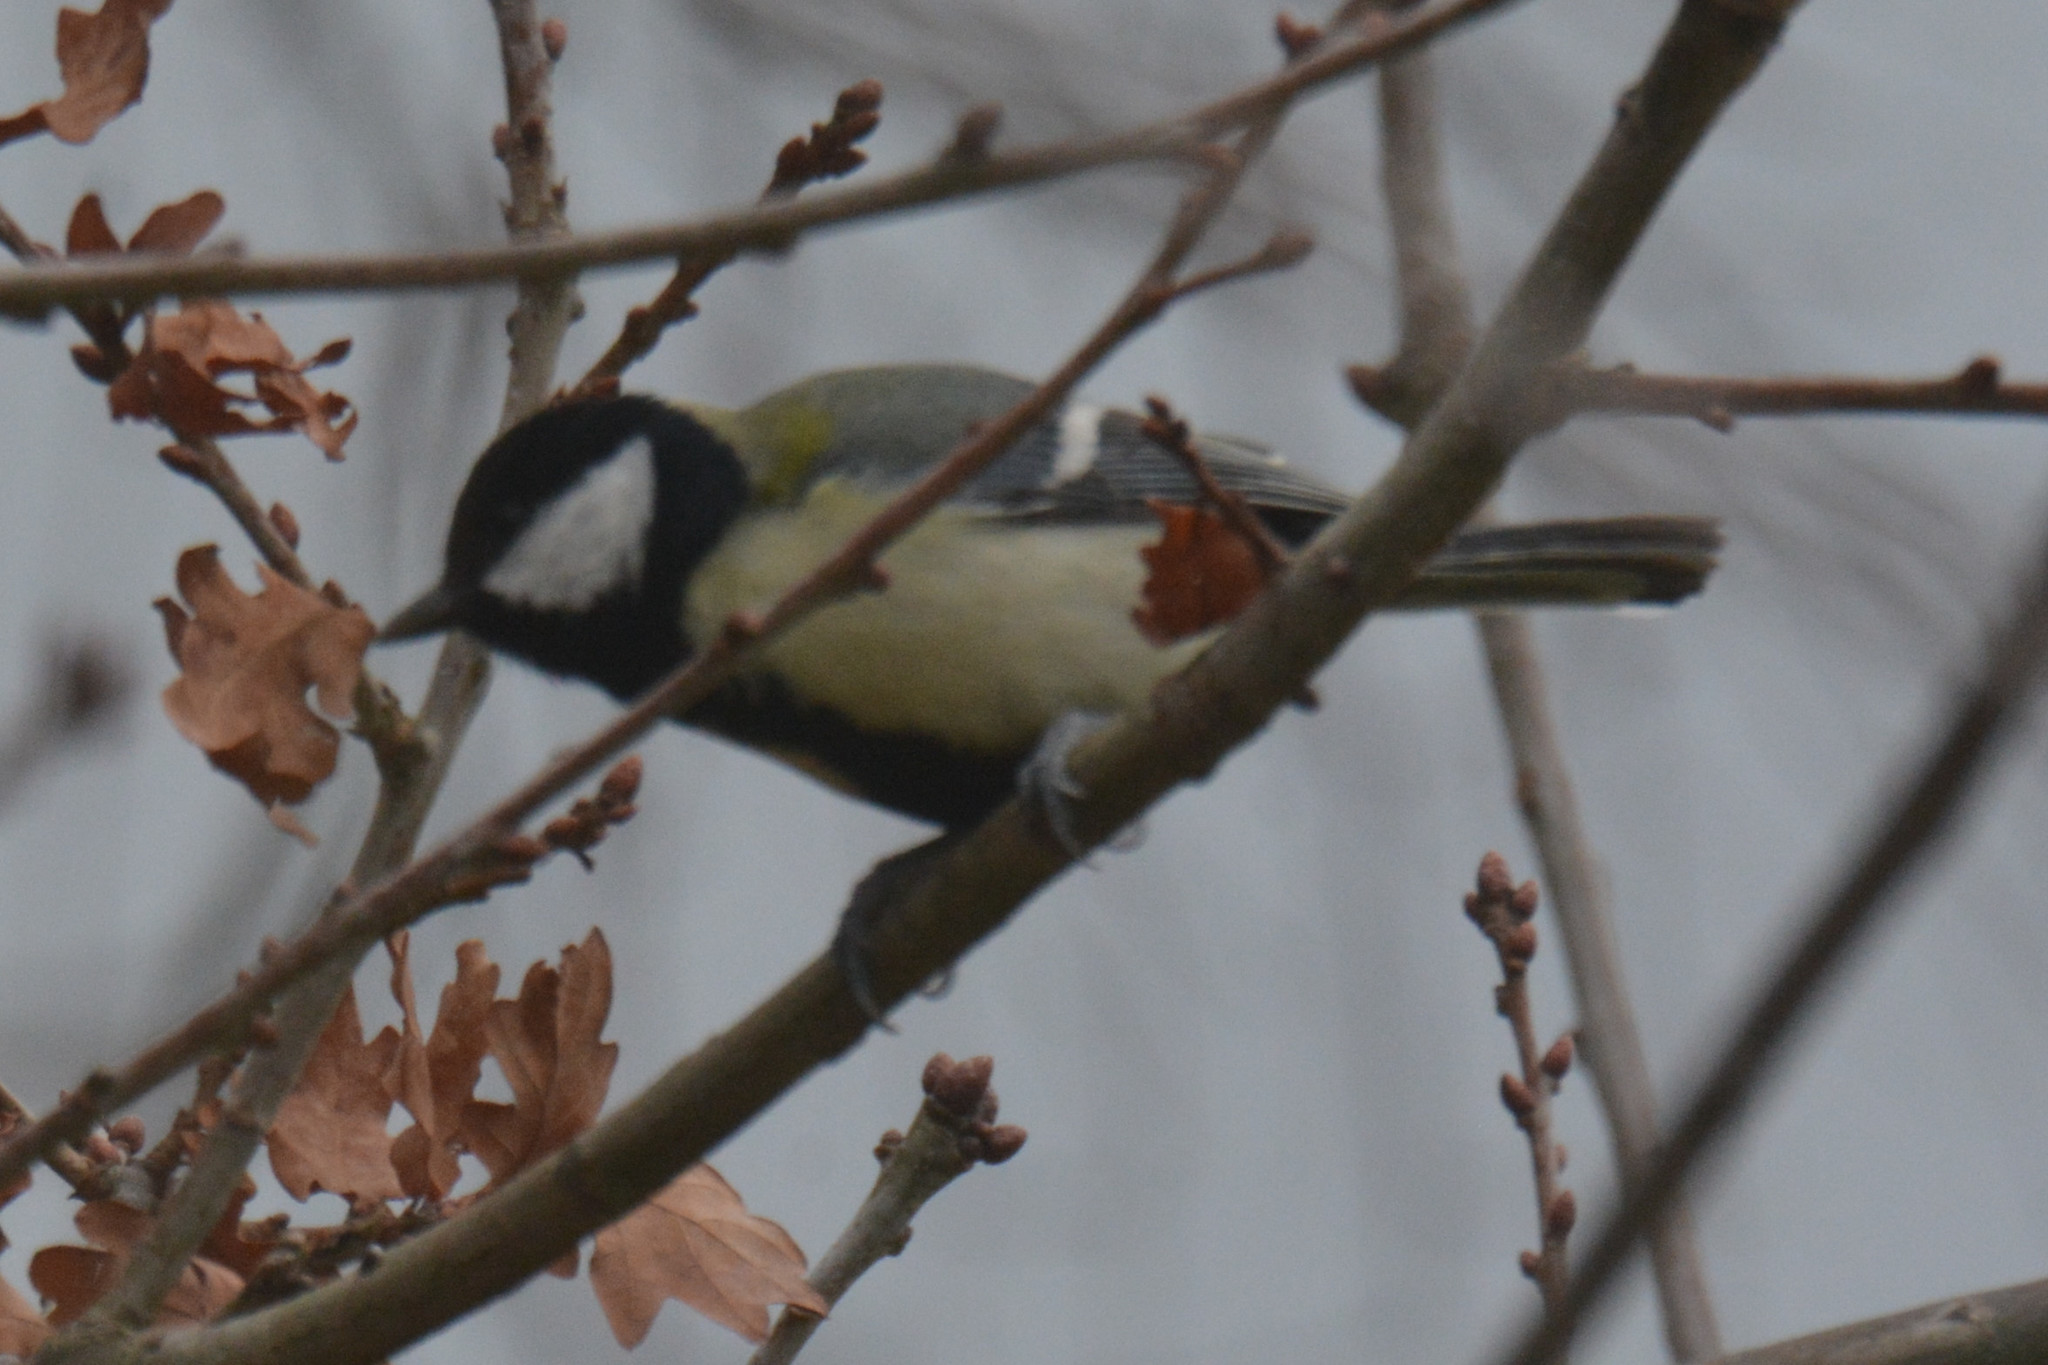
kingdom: Animalia
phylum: Chordata
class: Aves
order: Passeriformes
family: Paridae
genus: Parus
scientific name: Parus major
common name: Great tit
